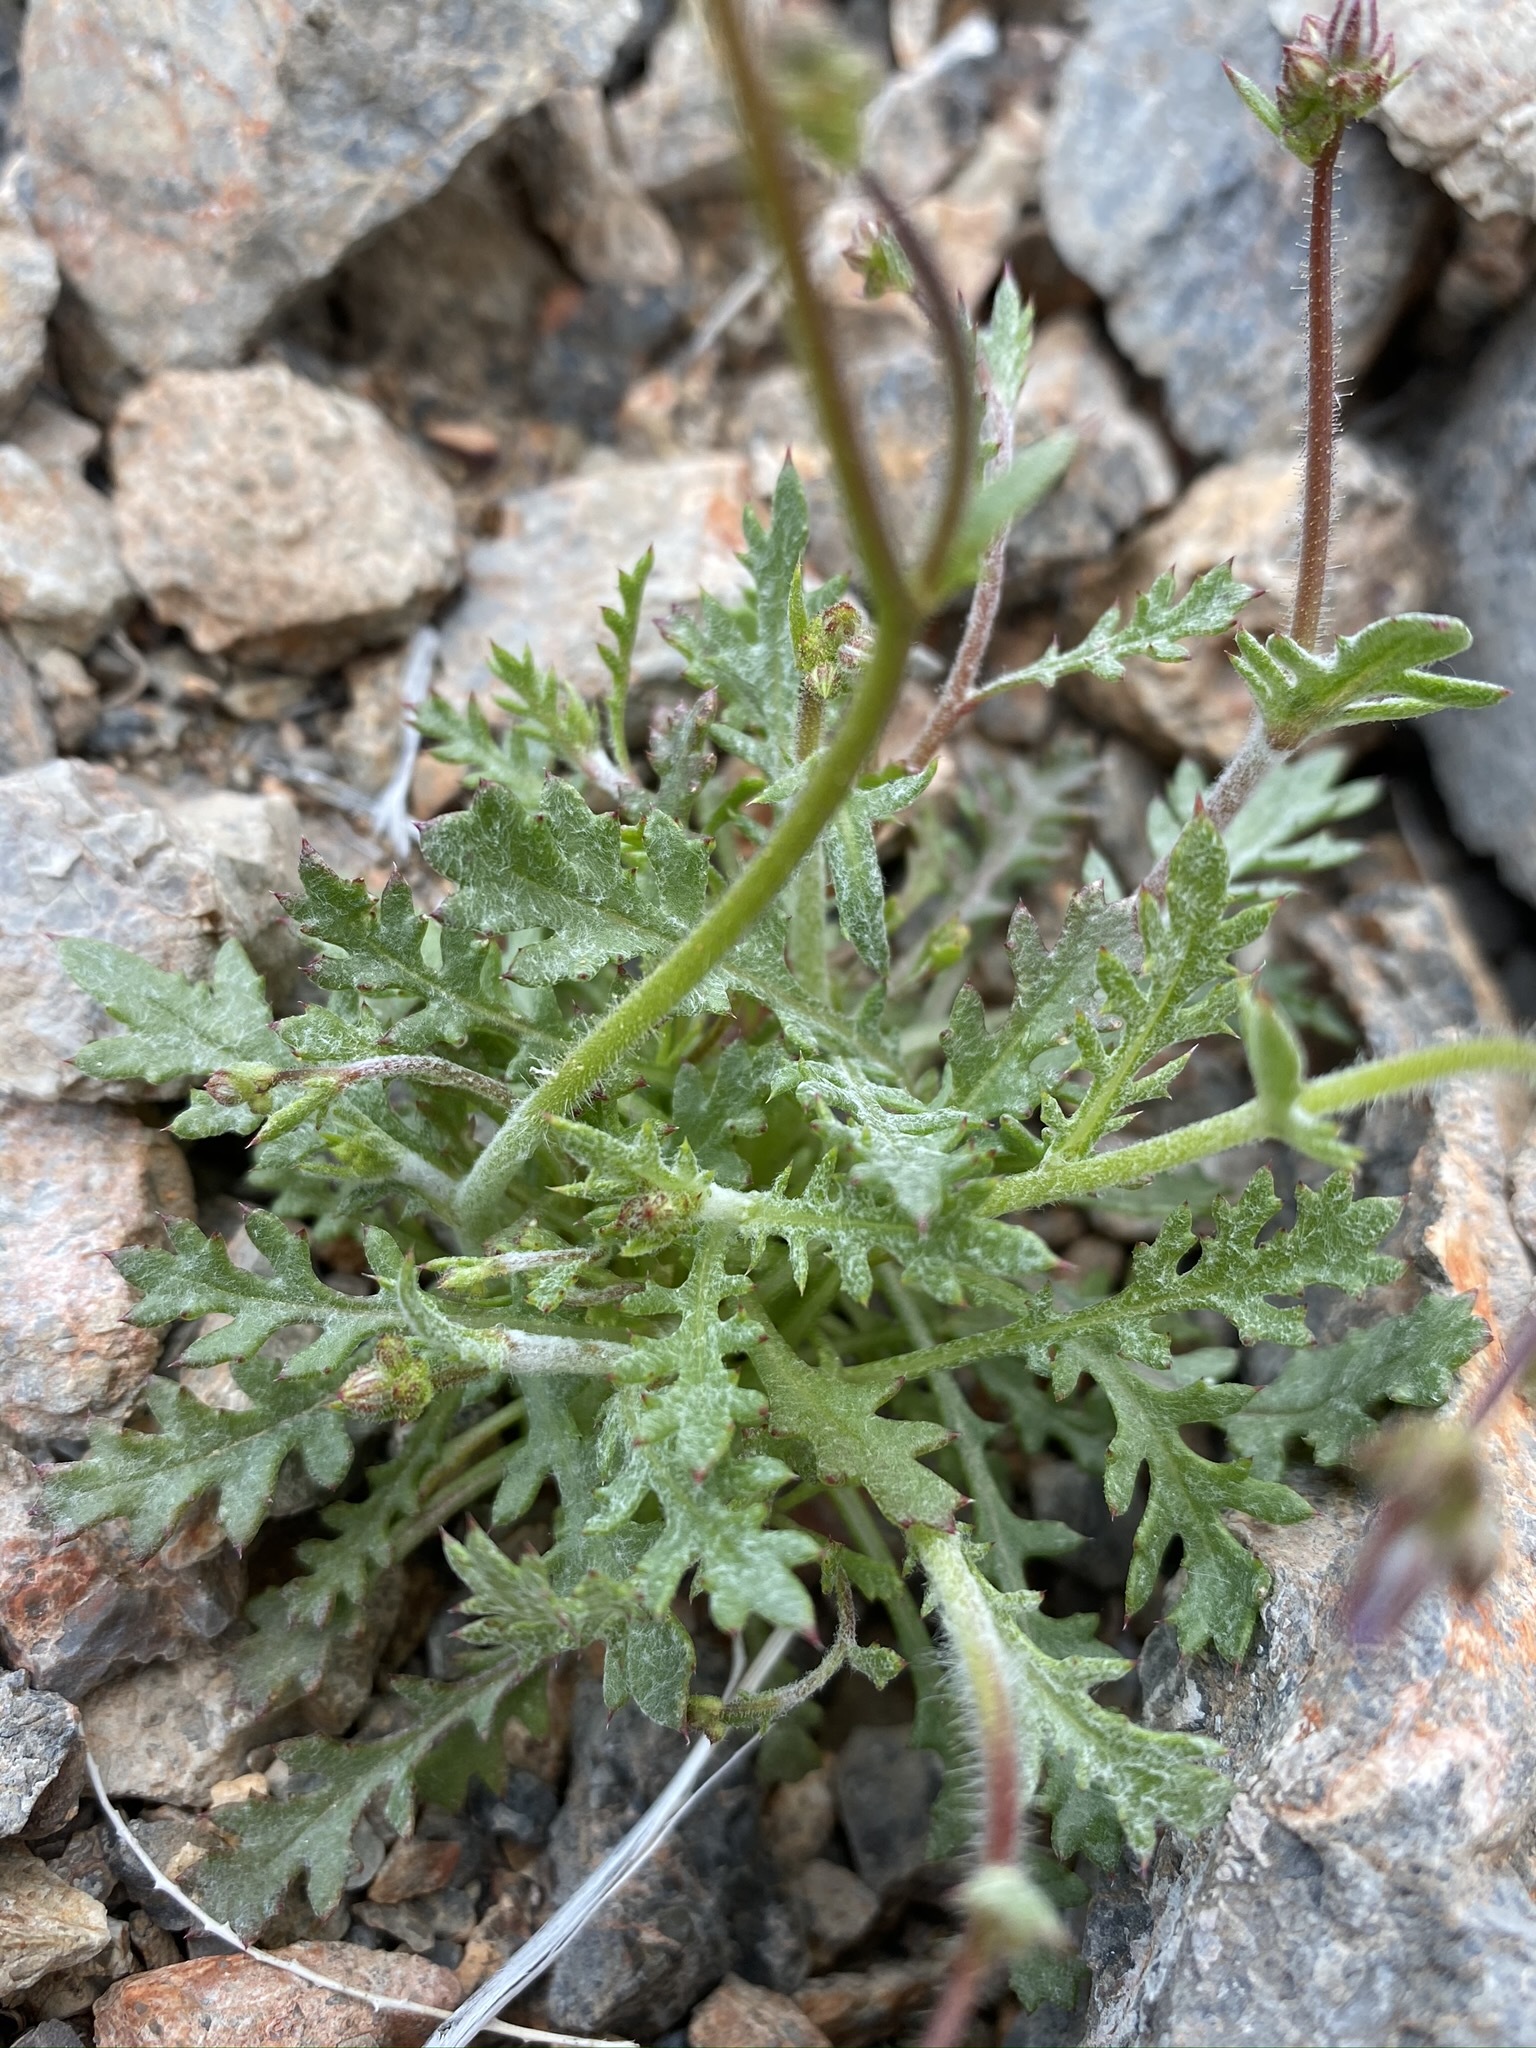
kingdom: Plantae
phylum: Tracheophyta
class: Magnoliopsida
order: Ericales
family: Polemoniaceae
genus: Gilia
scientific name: Gilia cana
